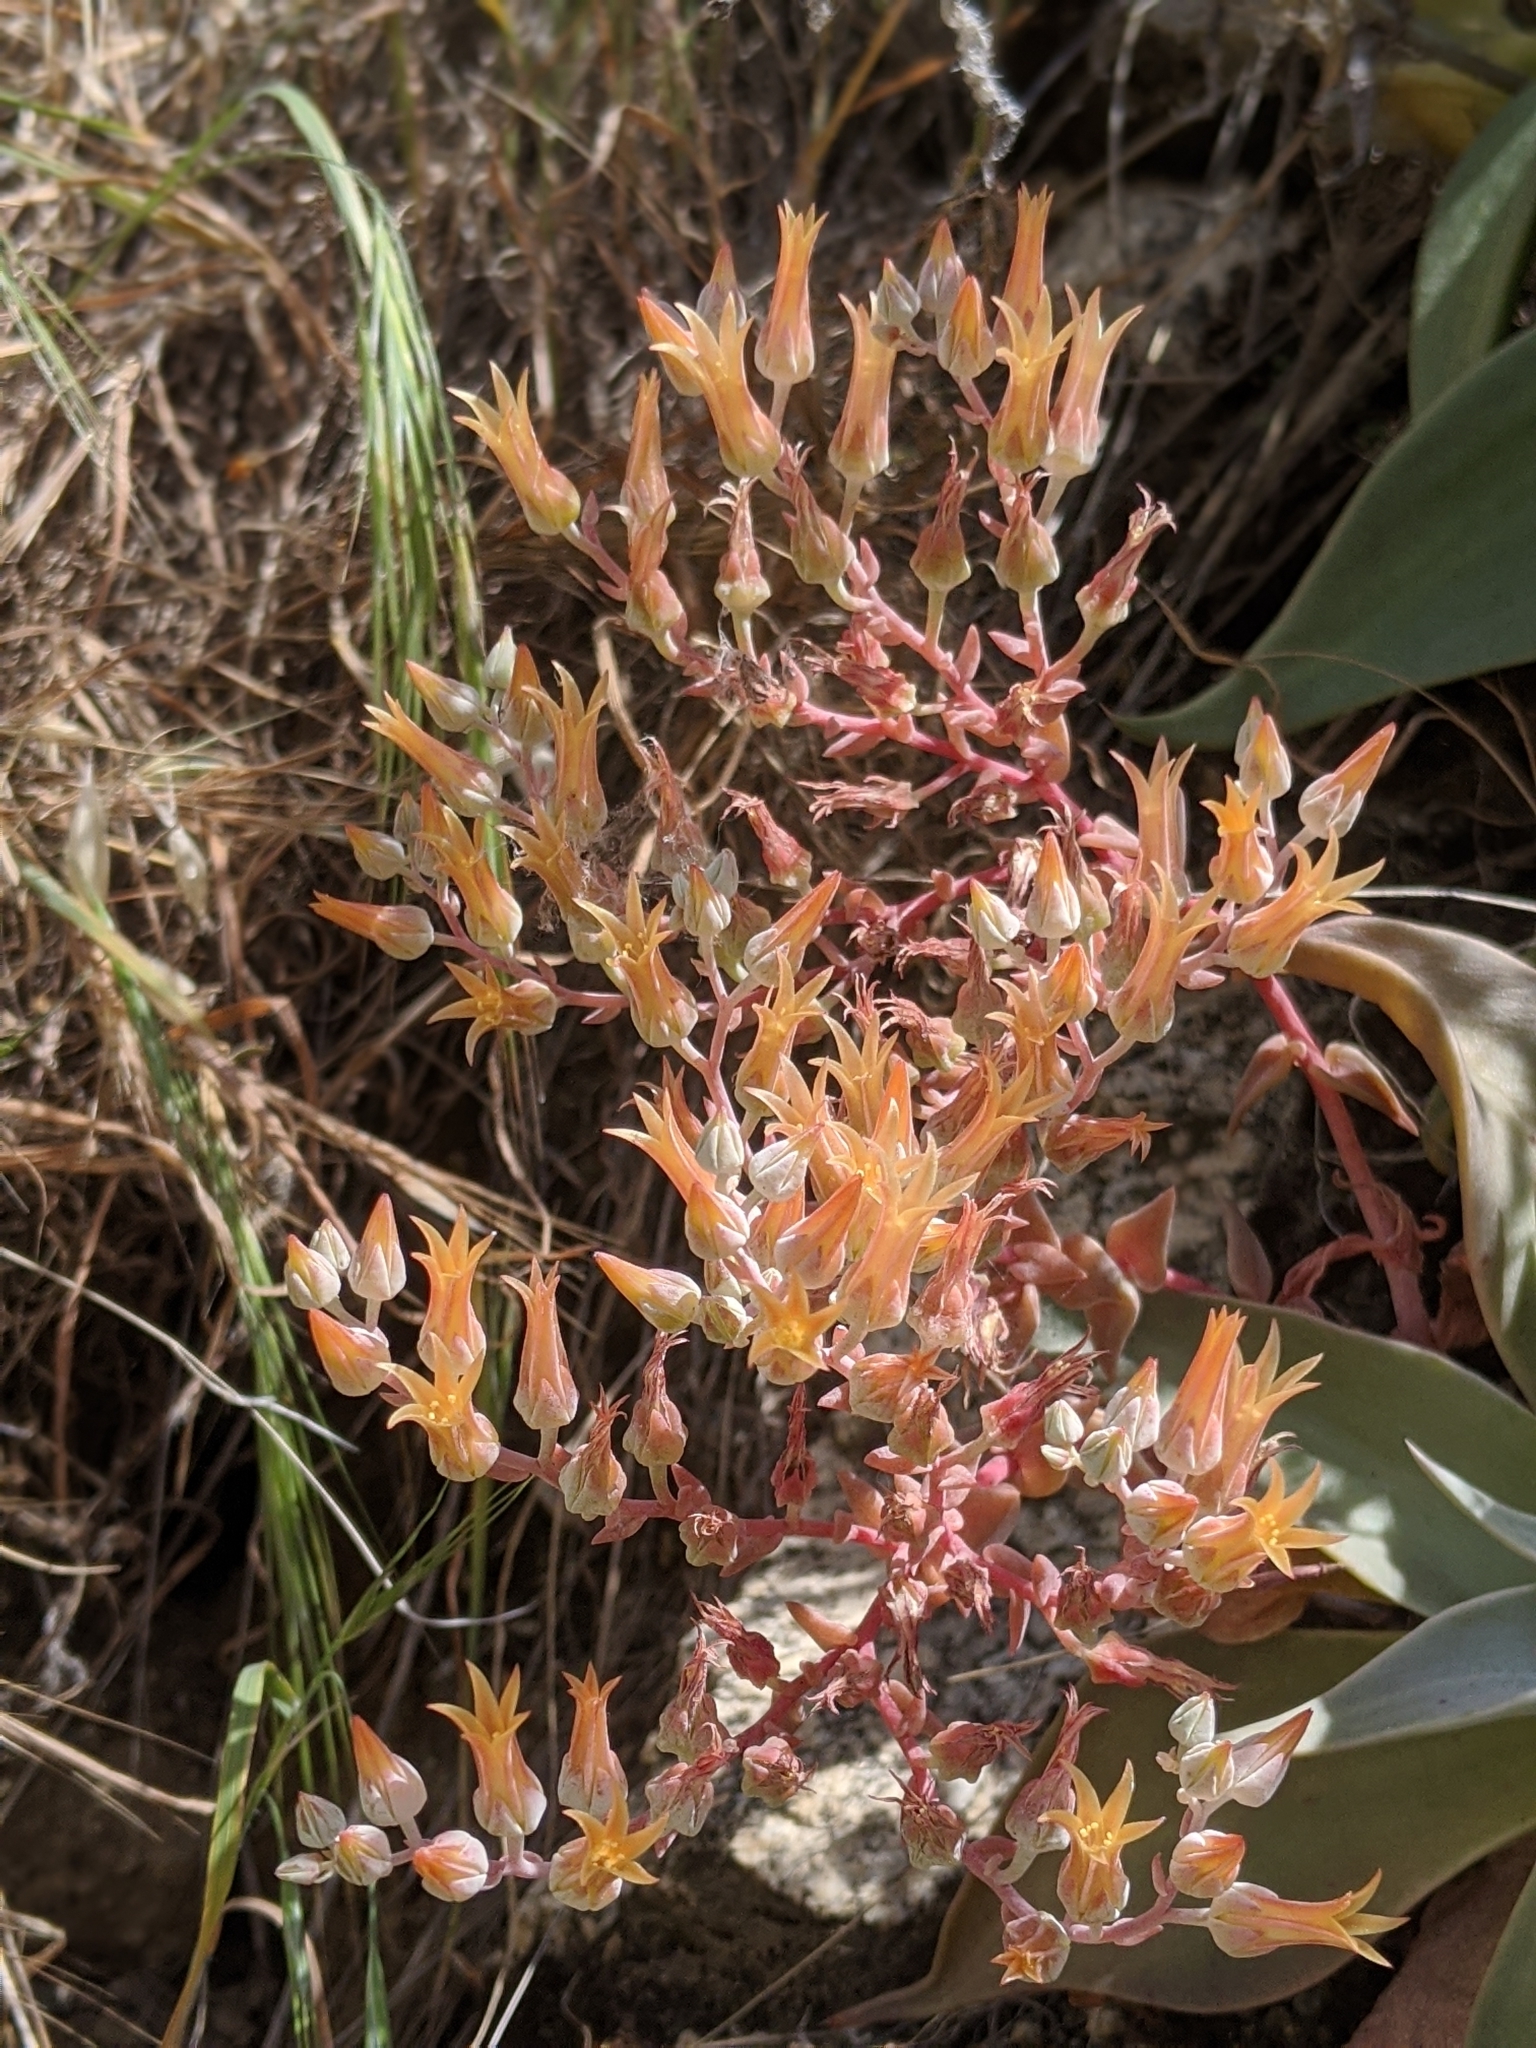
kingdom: Plantae
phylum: Tracheophyta
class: Magnoliopsida
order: Saxifragales
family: Crassulaceae
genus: Dudleya
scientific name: Dudleya cymosa
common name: Canyon dudleya
